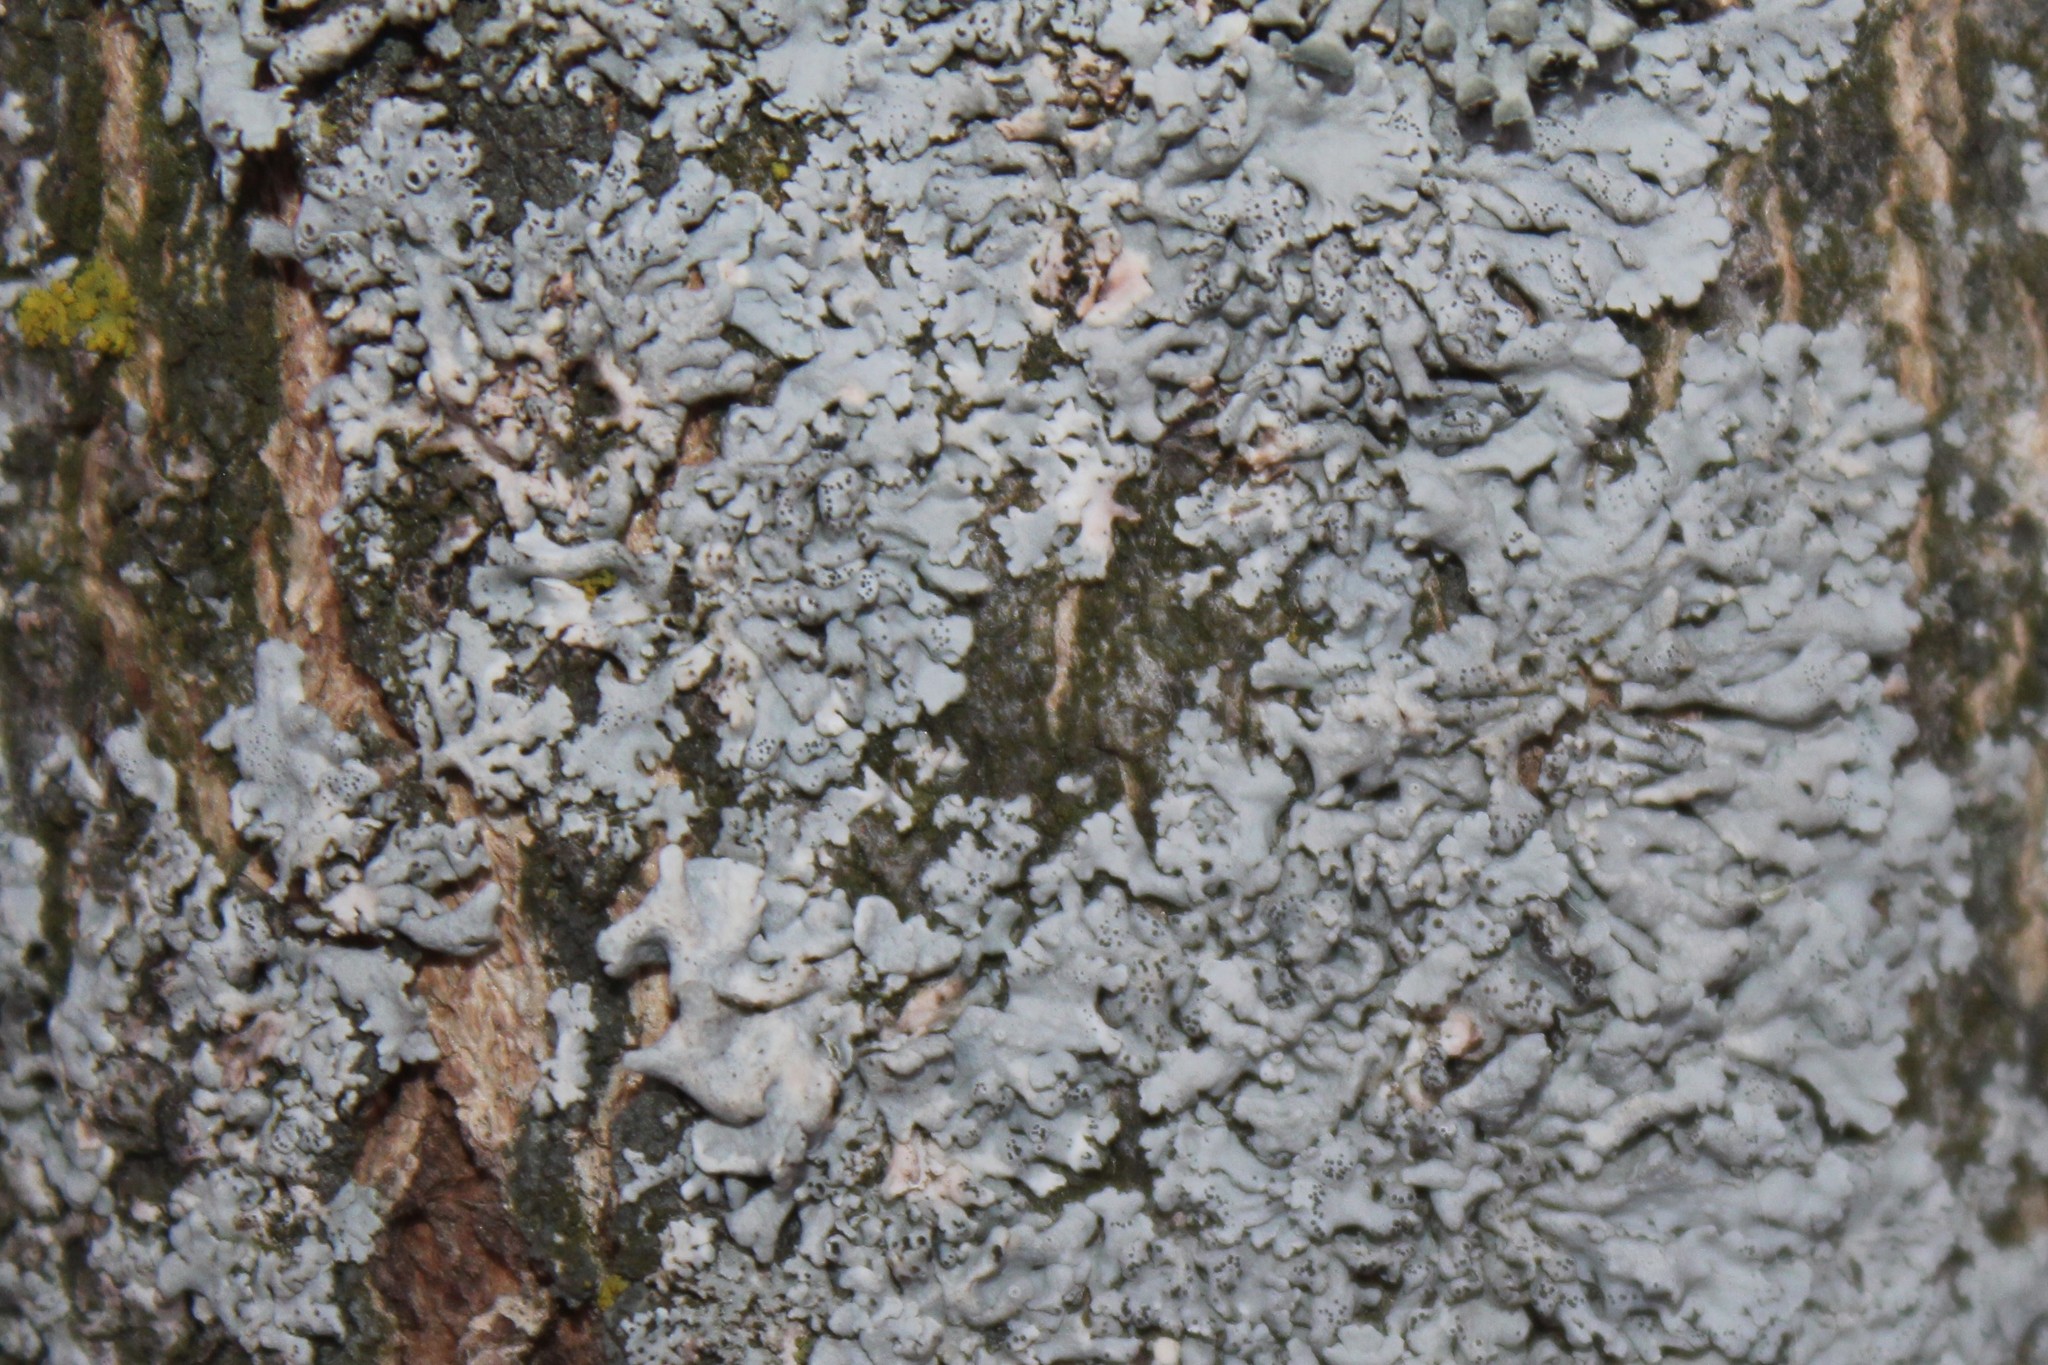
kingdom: Fungi
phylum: Ascomycota
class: Lecanoromycetes
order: Caliciales
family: Physciaceae
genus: Physcia
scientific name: Physcia stellaris
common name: Star rosette lichen
